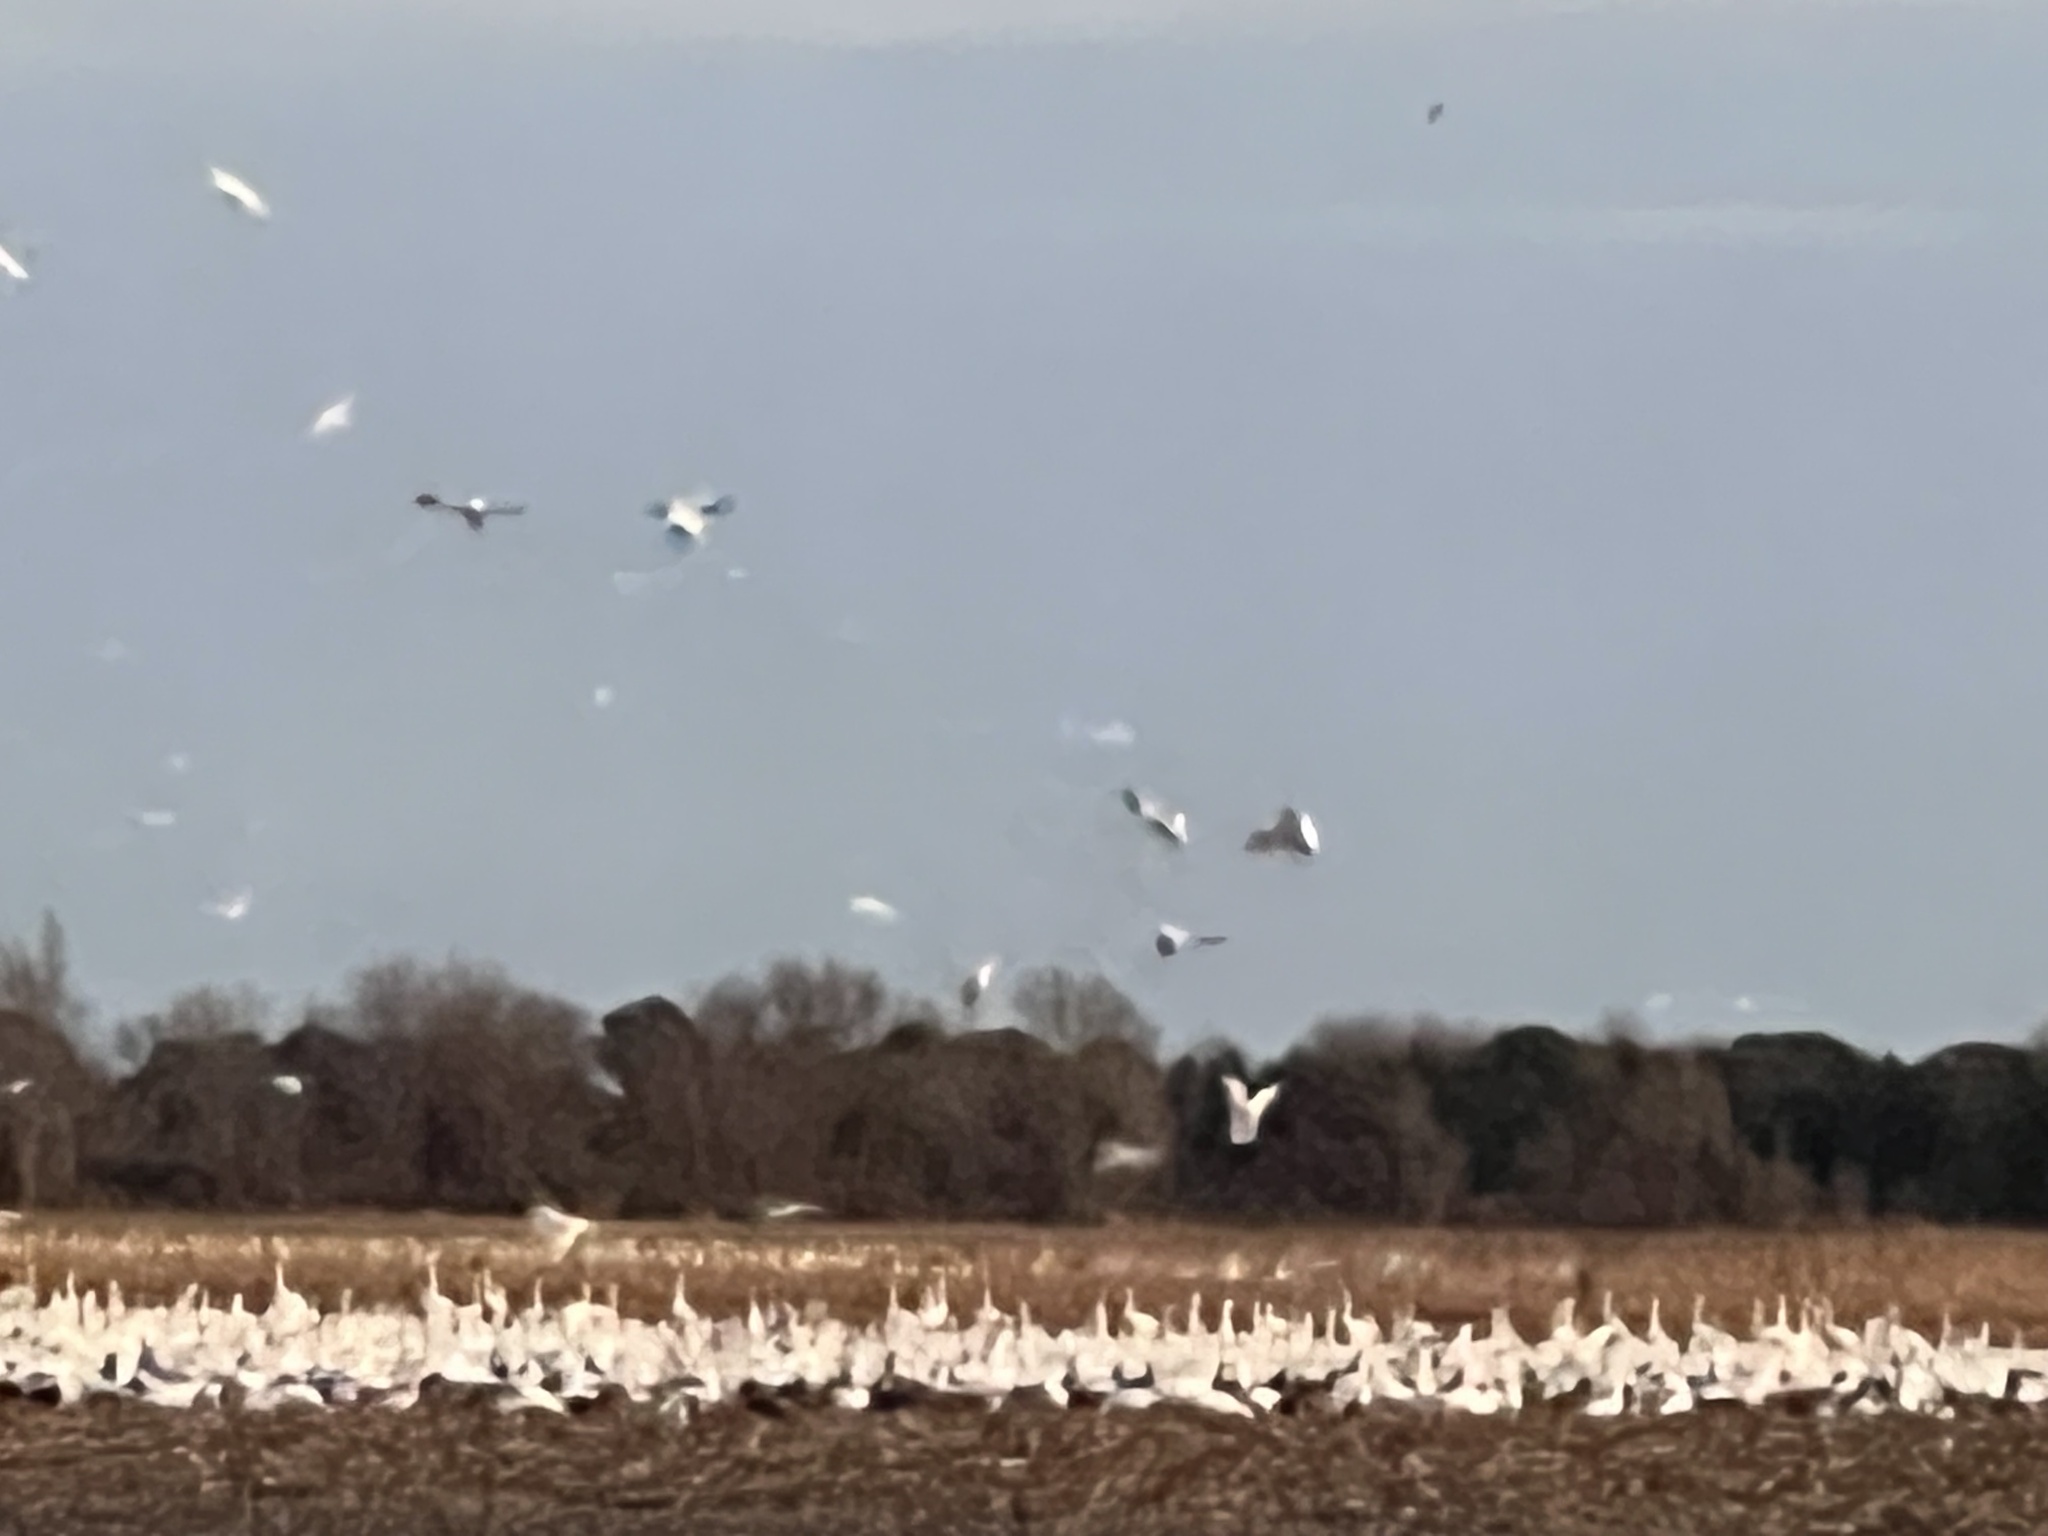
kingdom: Animalia
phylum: Chordata
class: Aves
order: Anseriformes
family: Anatidae
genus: Anser
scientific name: Anser caerulescens
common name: Snow goose
